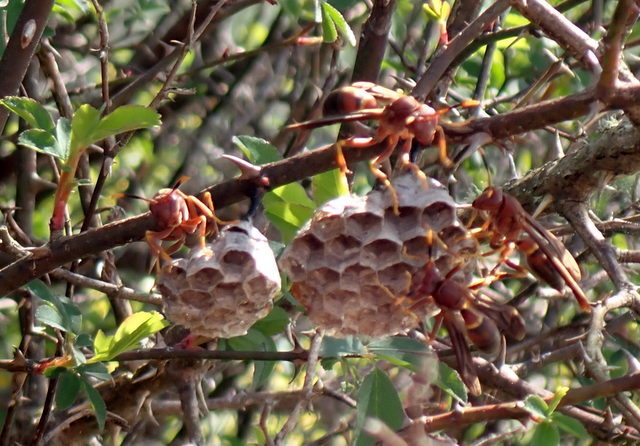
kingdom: Animalia
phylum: Arthropoda
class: Insecta
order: Hymenoptera
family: Eumenidae
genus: Polistes
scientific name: Polistes annularis
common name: Ringed paper wasp
